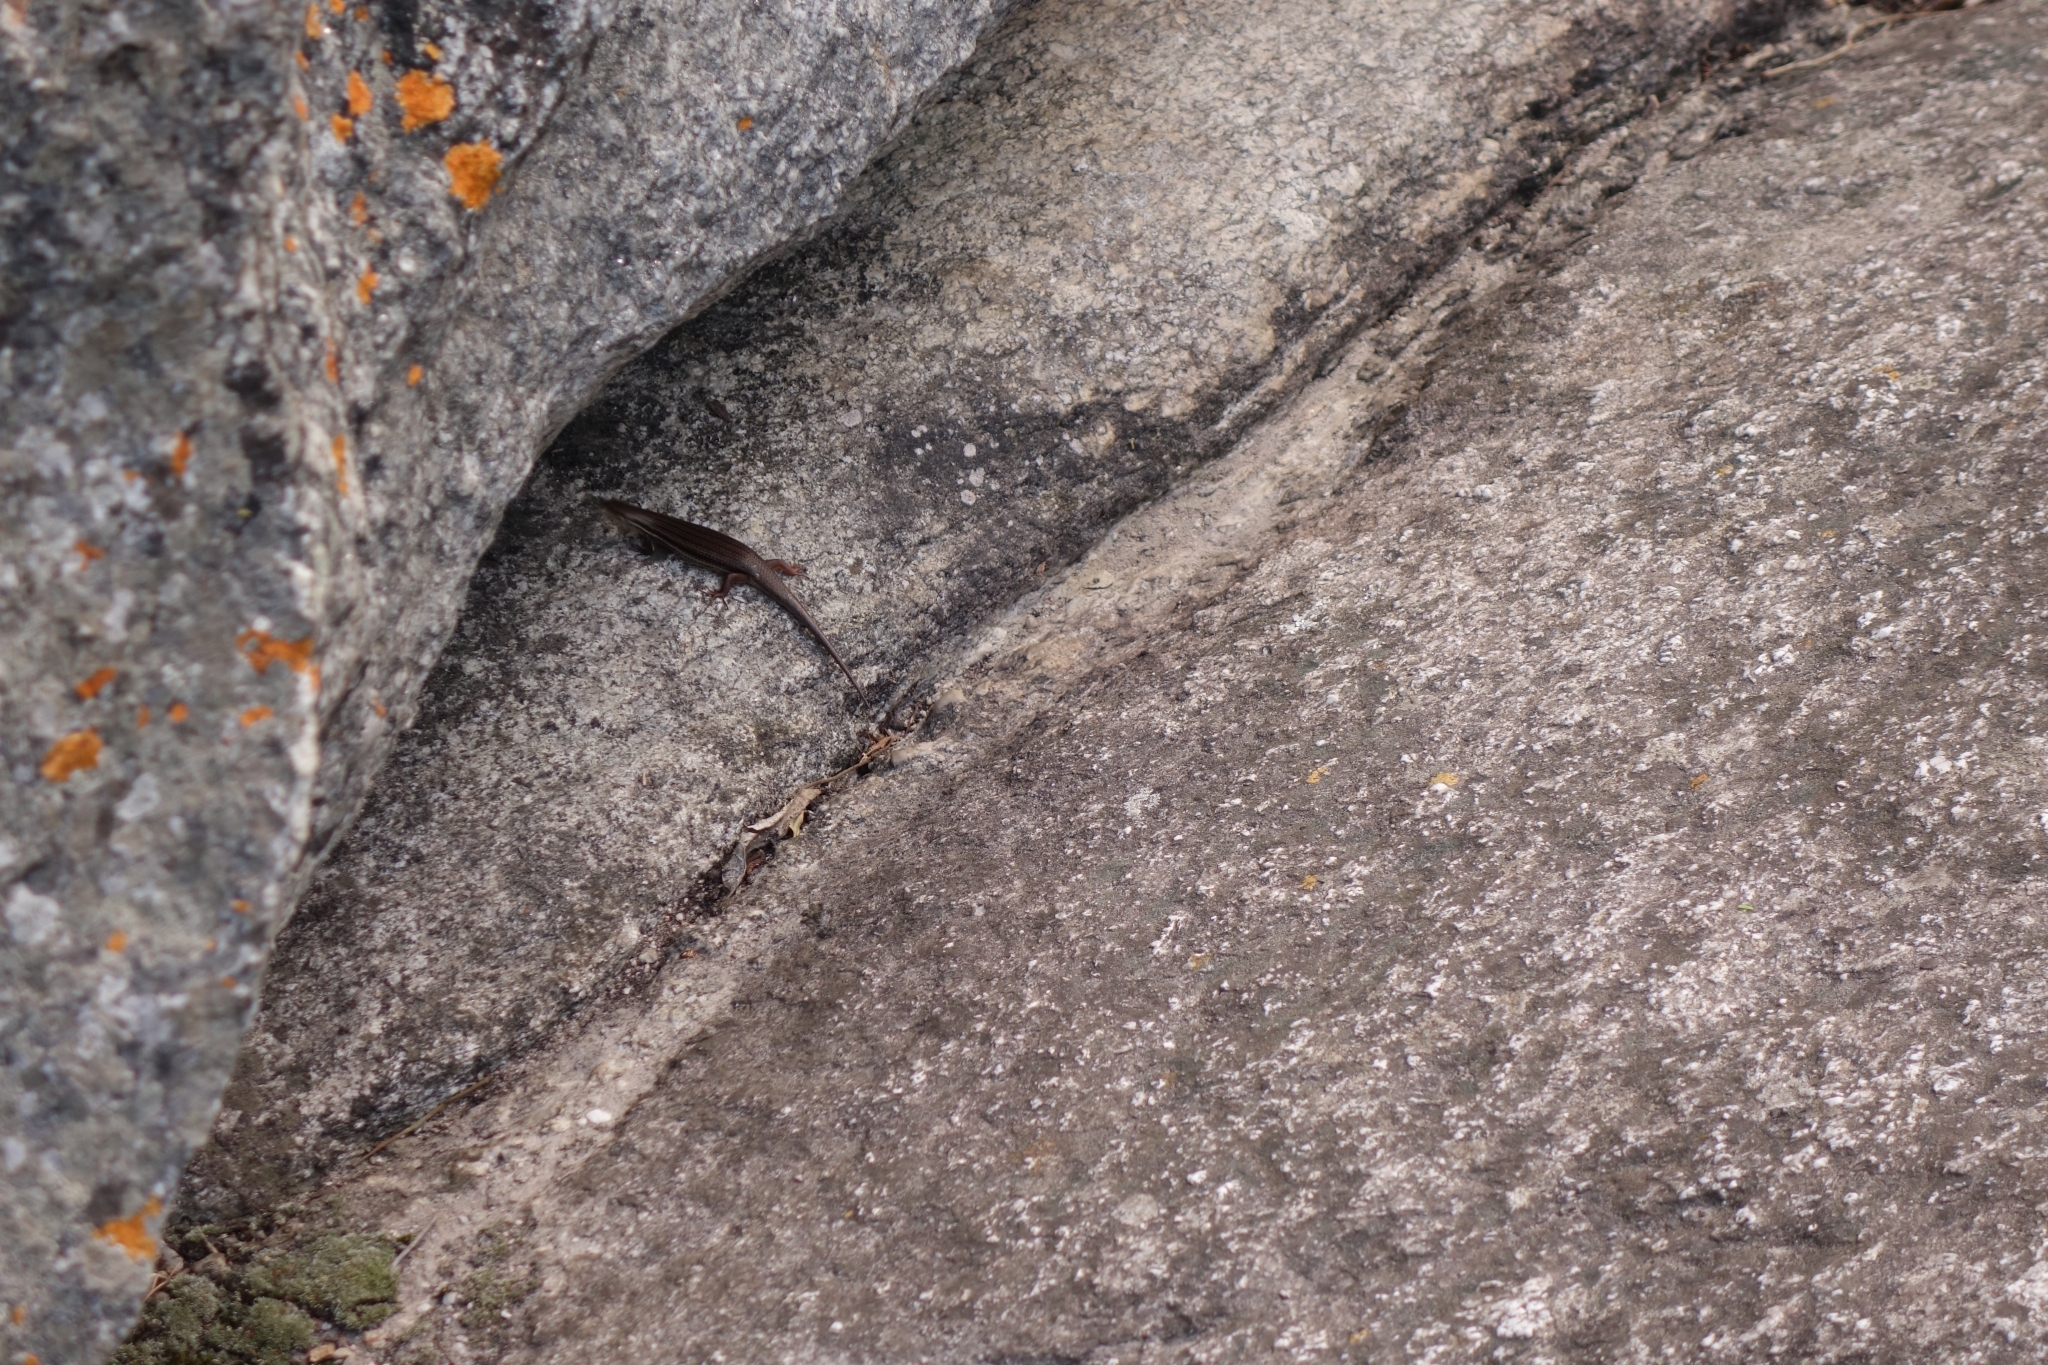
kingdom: Animalia
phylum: Chordata
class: Squamata
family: Scincidae
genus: Trachylepis
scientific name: Trachylepis homalocephala
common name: Red-sided skink
